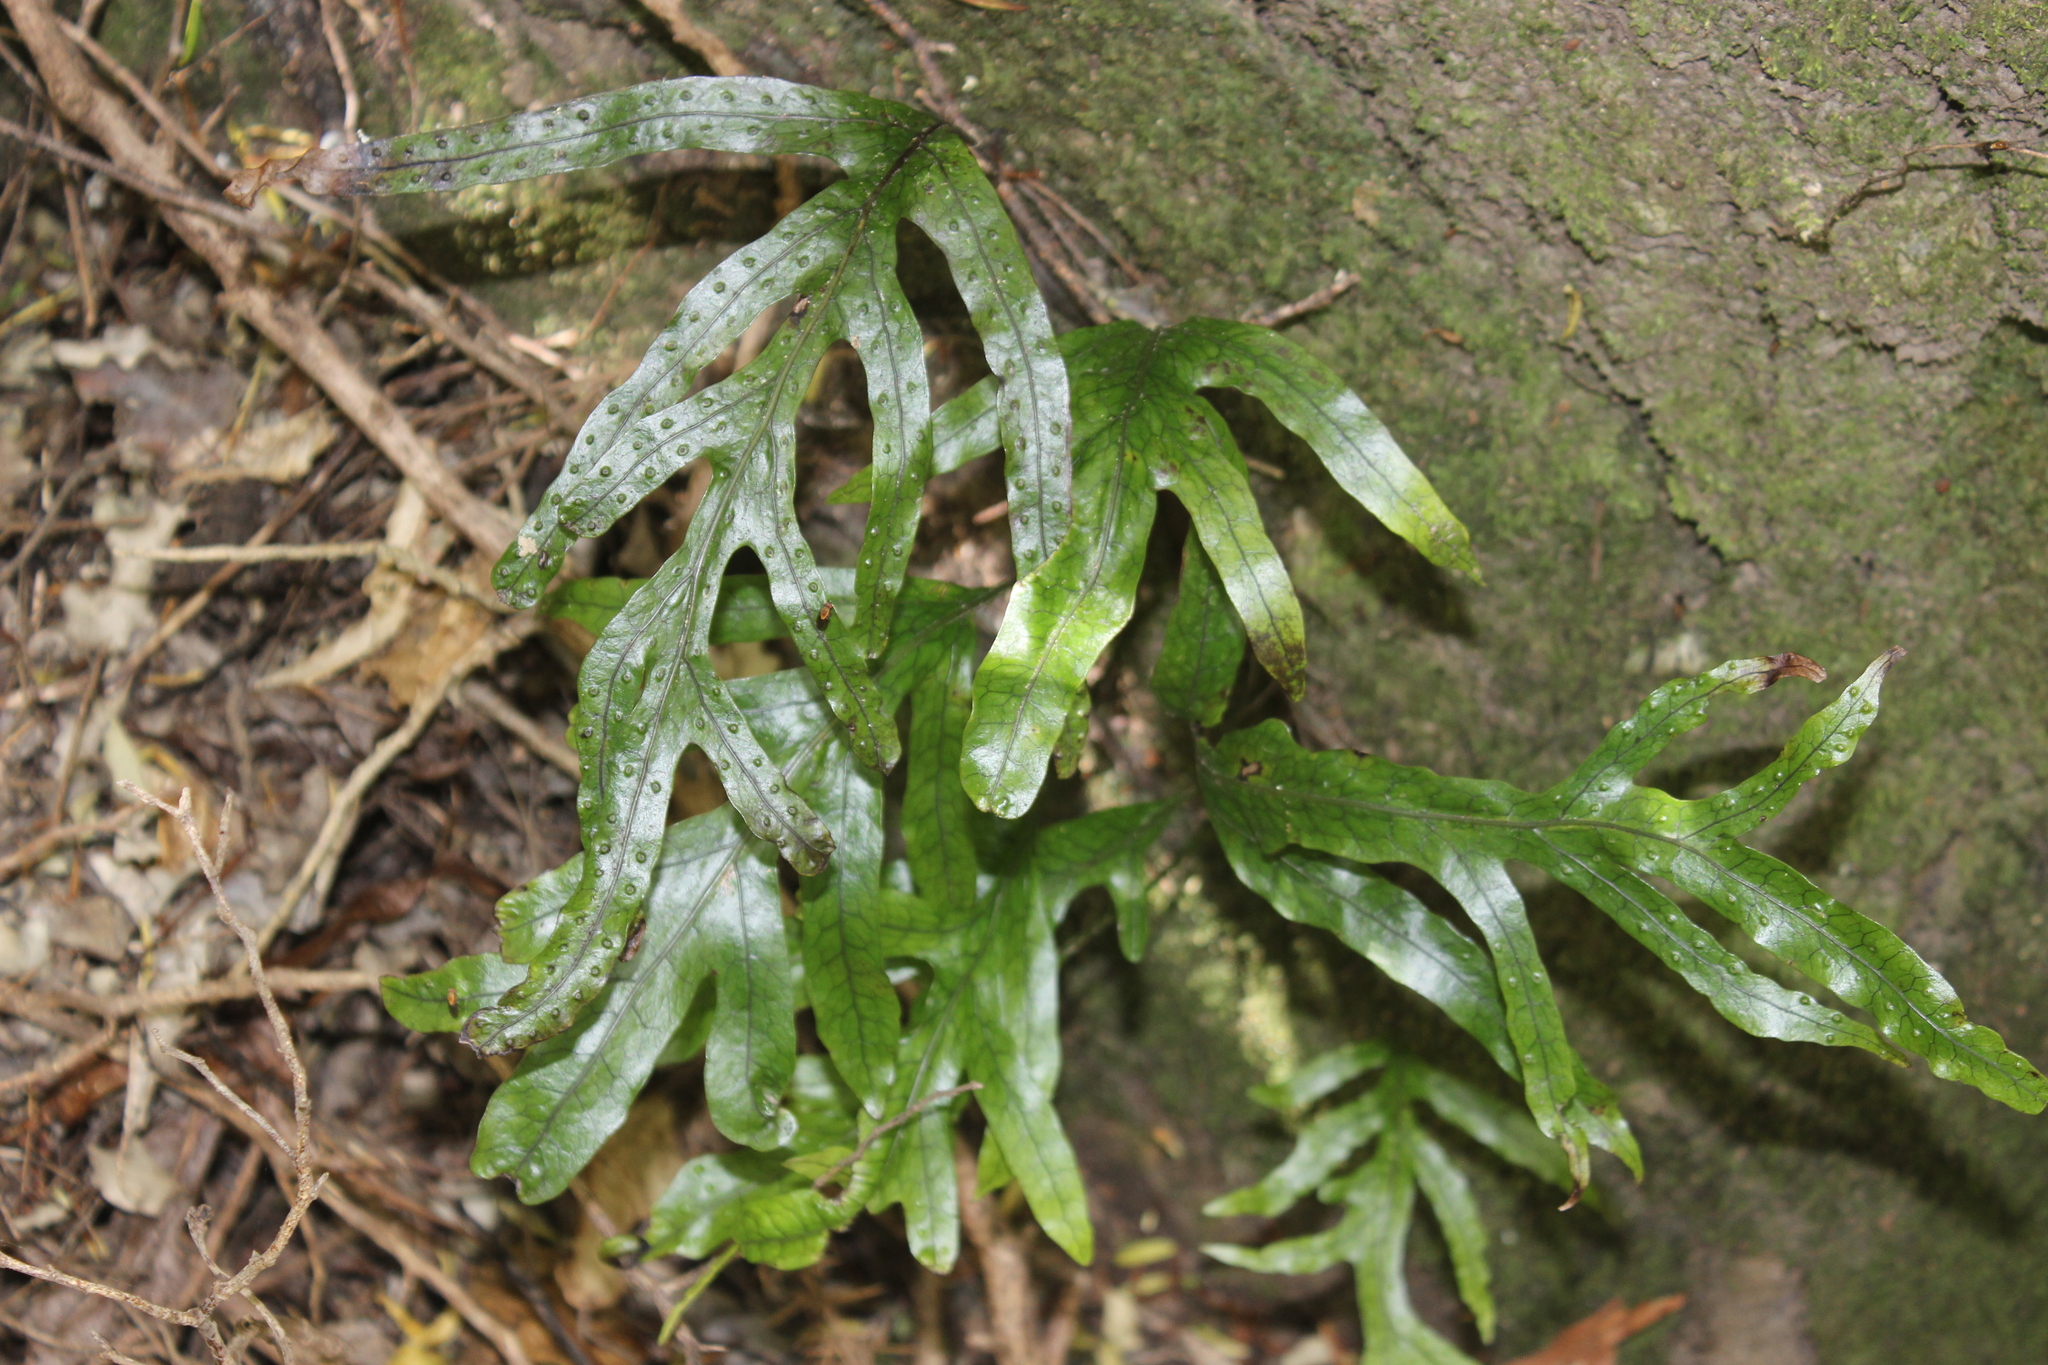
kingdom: Plantae
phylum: Tracheophyta
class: Polypodiopsida
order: Polypodiales
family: Polypodiaceae
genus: Lecanopteris
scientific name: Lecanopteris pustulata
